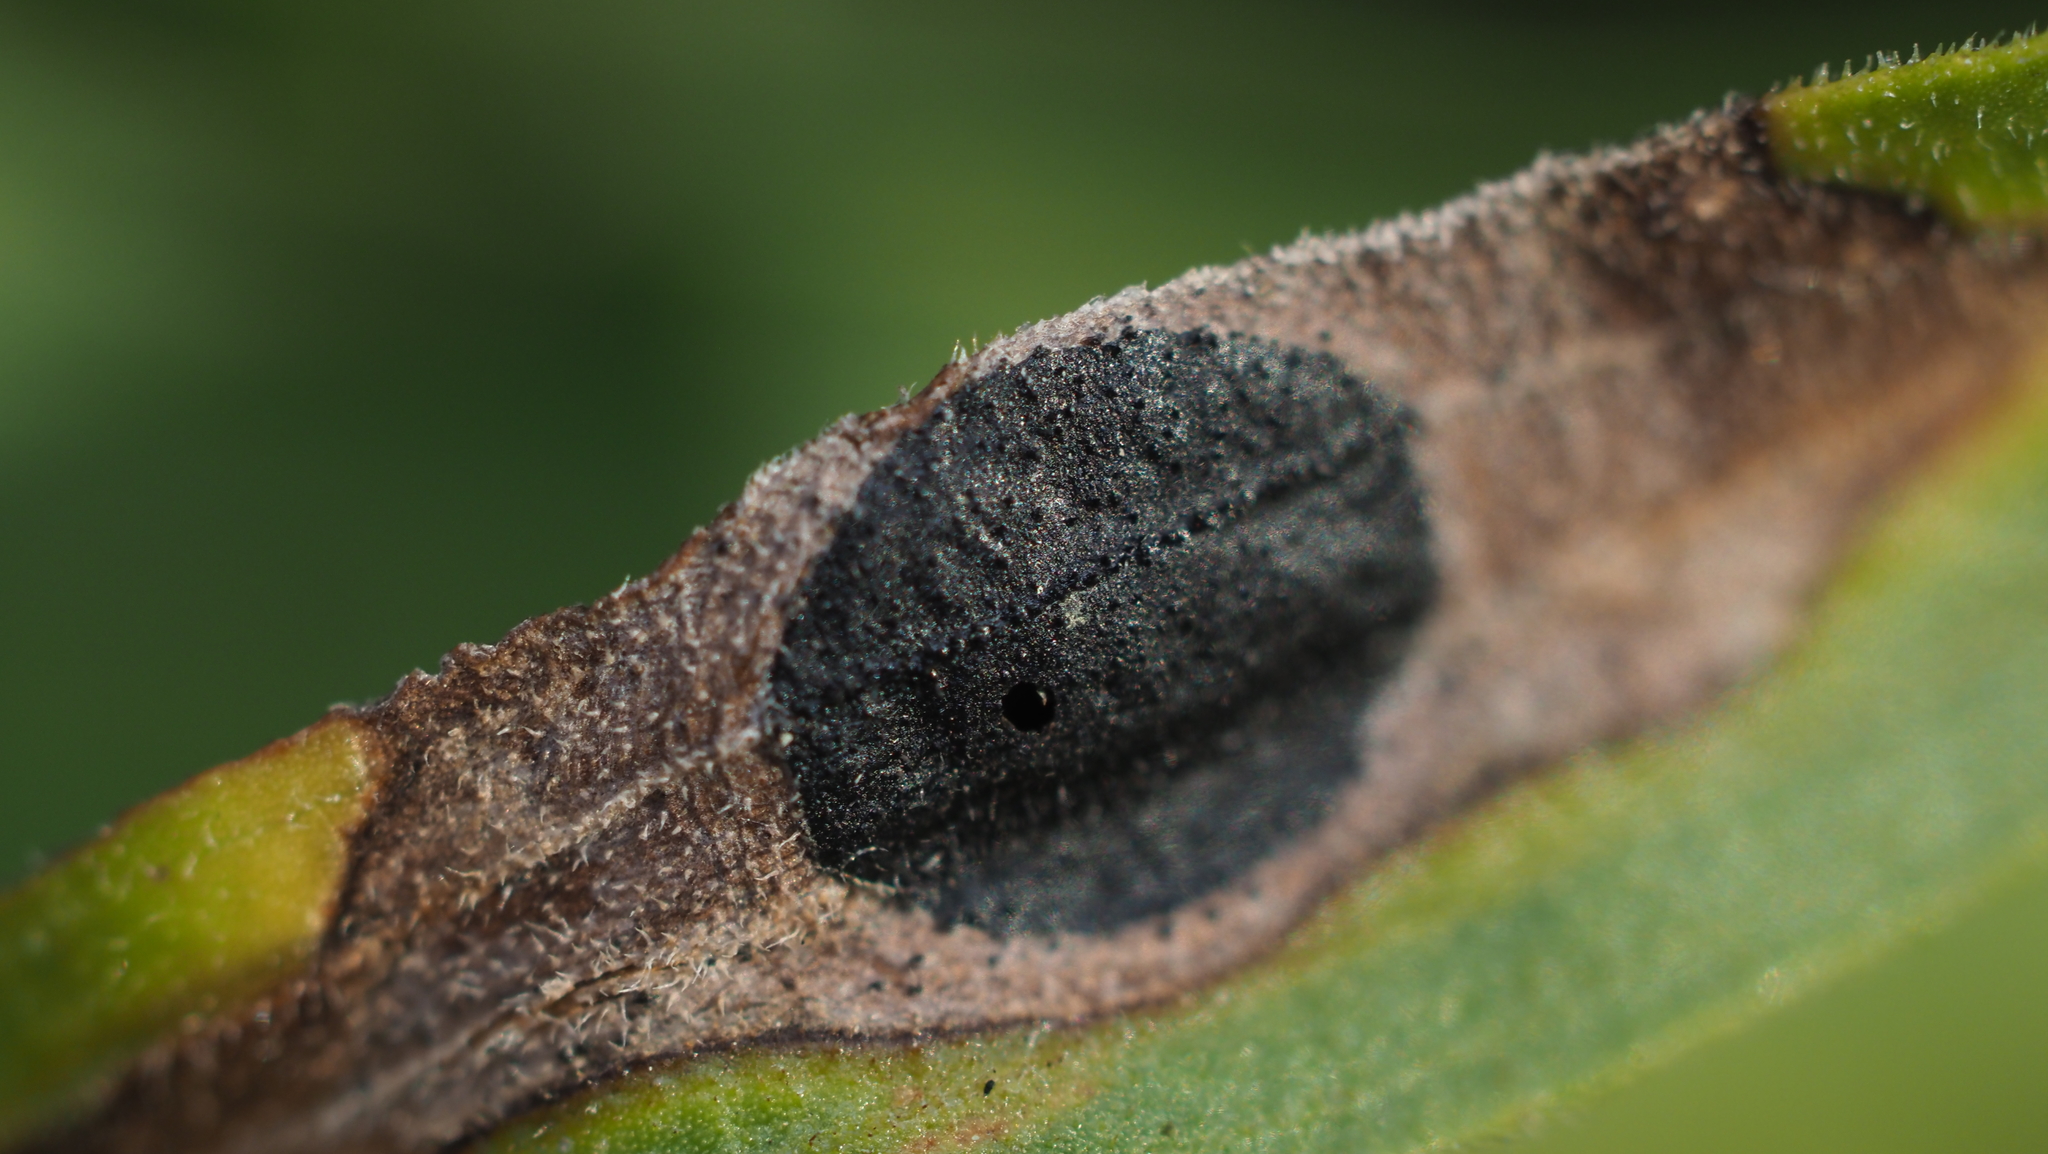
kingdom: Animalia
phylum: Arthropoda
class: Insecta
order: Diptera
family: Cecidomyiidae
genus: Asteromyia
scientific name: Asteromyia euthamiae
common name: Euthamia leaf gall midge
